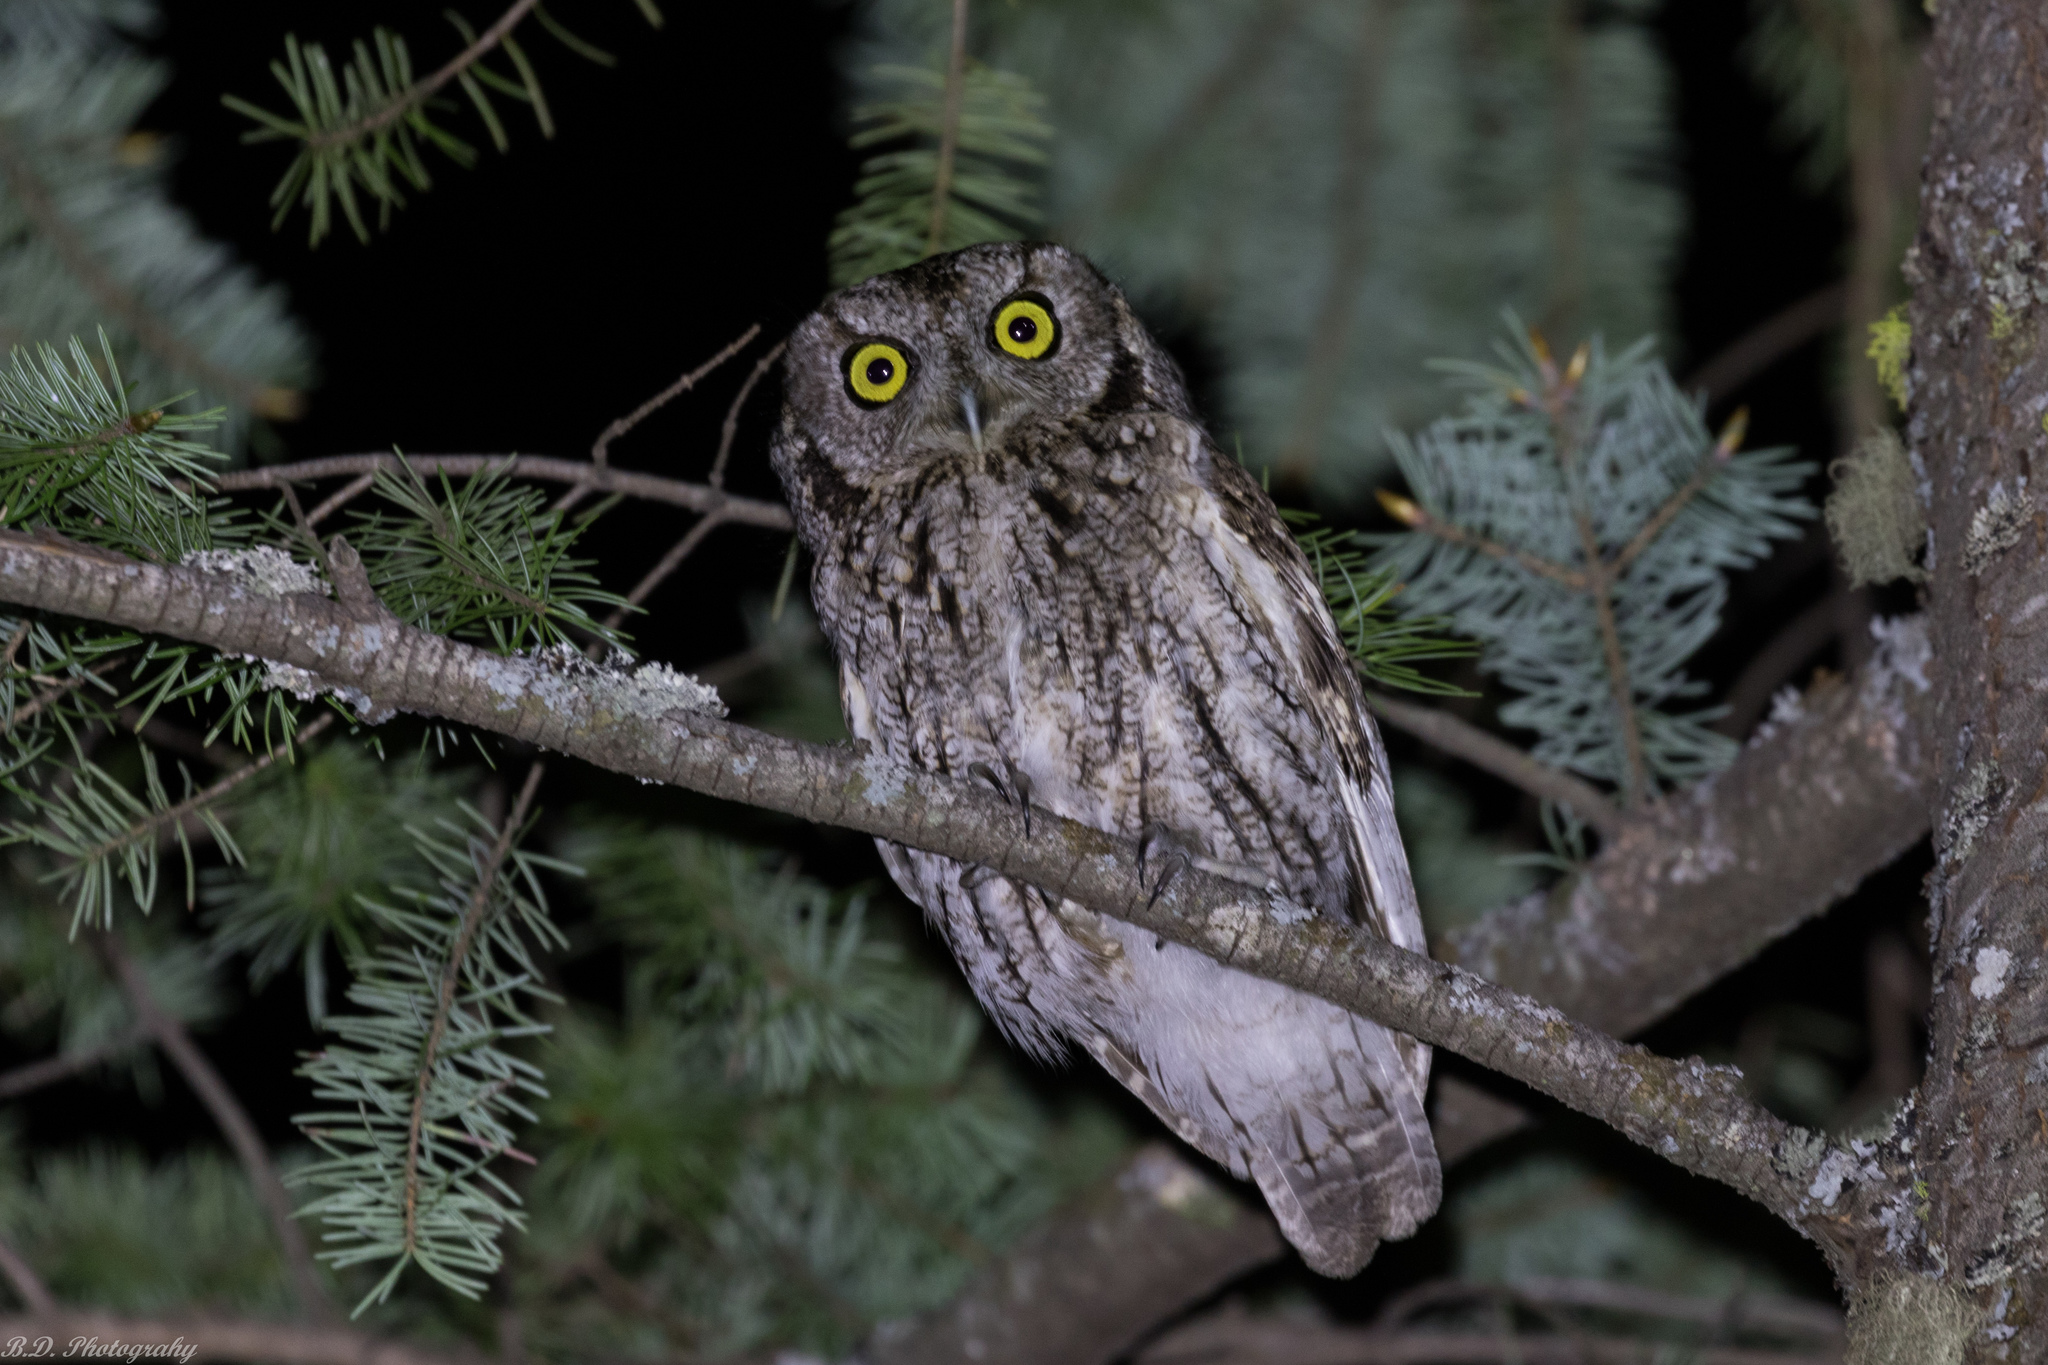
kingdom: Animalia
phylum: Chordata
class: Aves
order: Strigiformes
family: Strigidae
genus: Megascops
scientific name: Megascops kennicottii
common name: Western screech-owl
